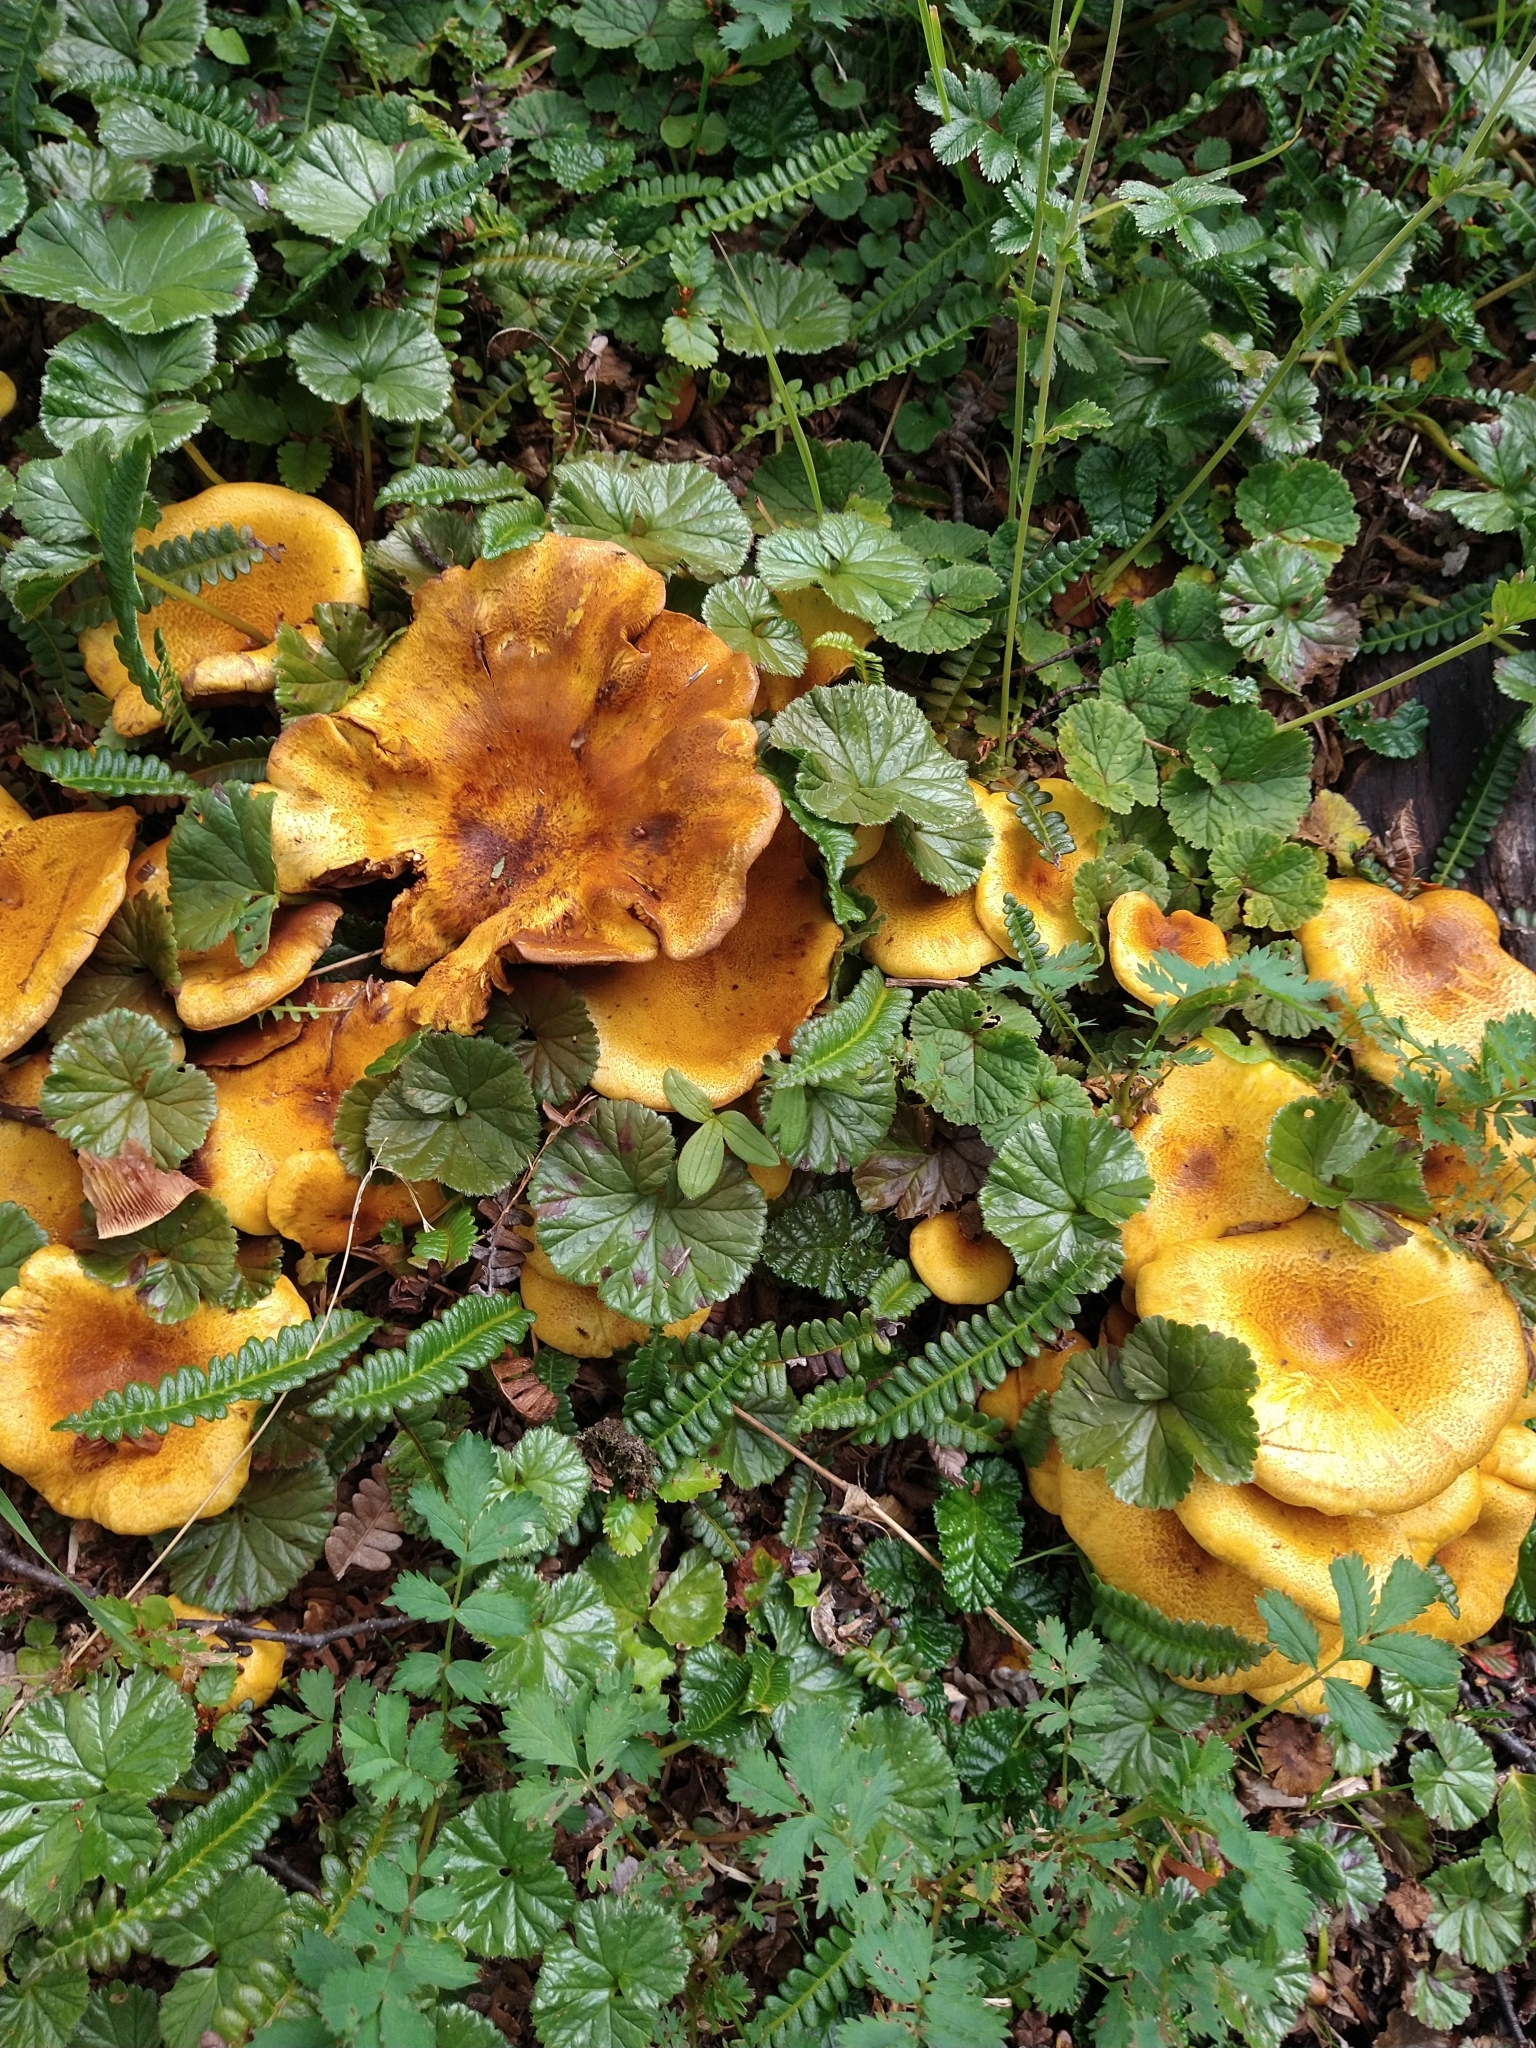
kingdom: Fungi
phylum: Basidiomycota
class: Agaricomycetes
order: Boletales
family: Serpulaceae
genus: Austropaxillus
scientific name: Austropaxillus statuum
